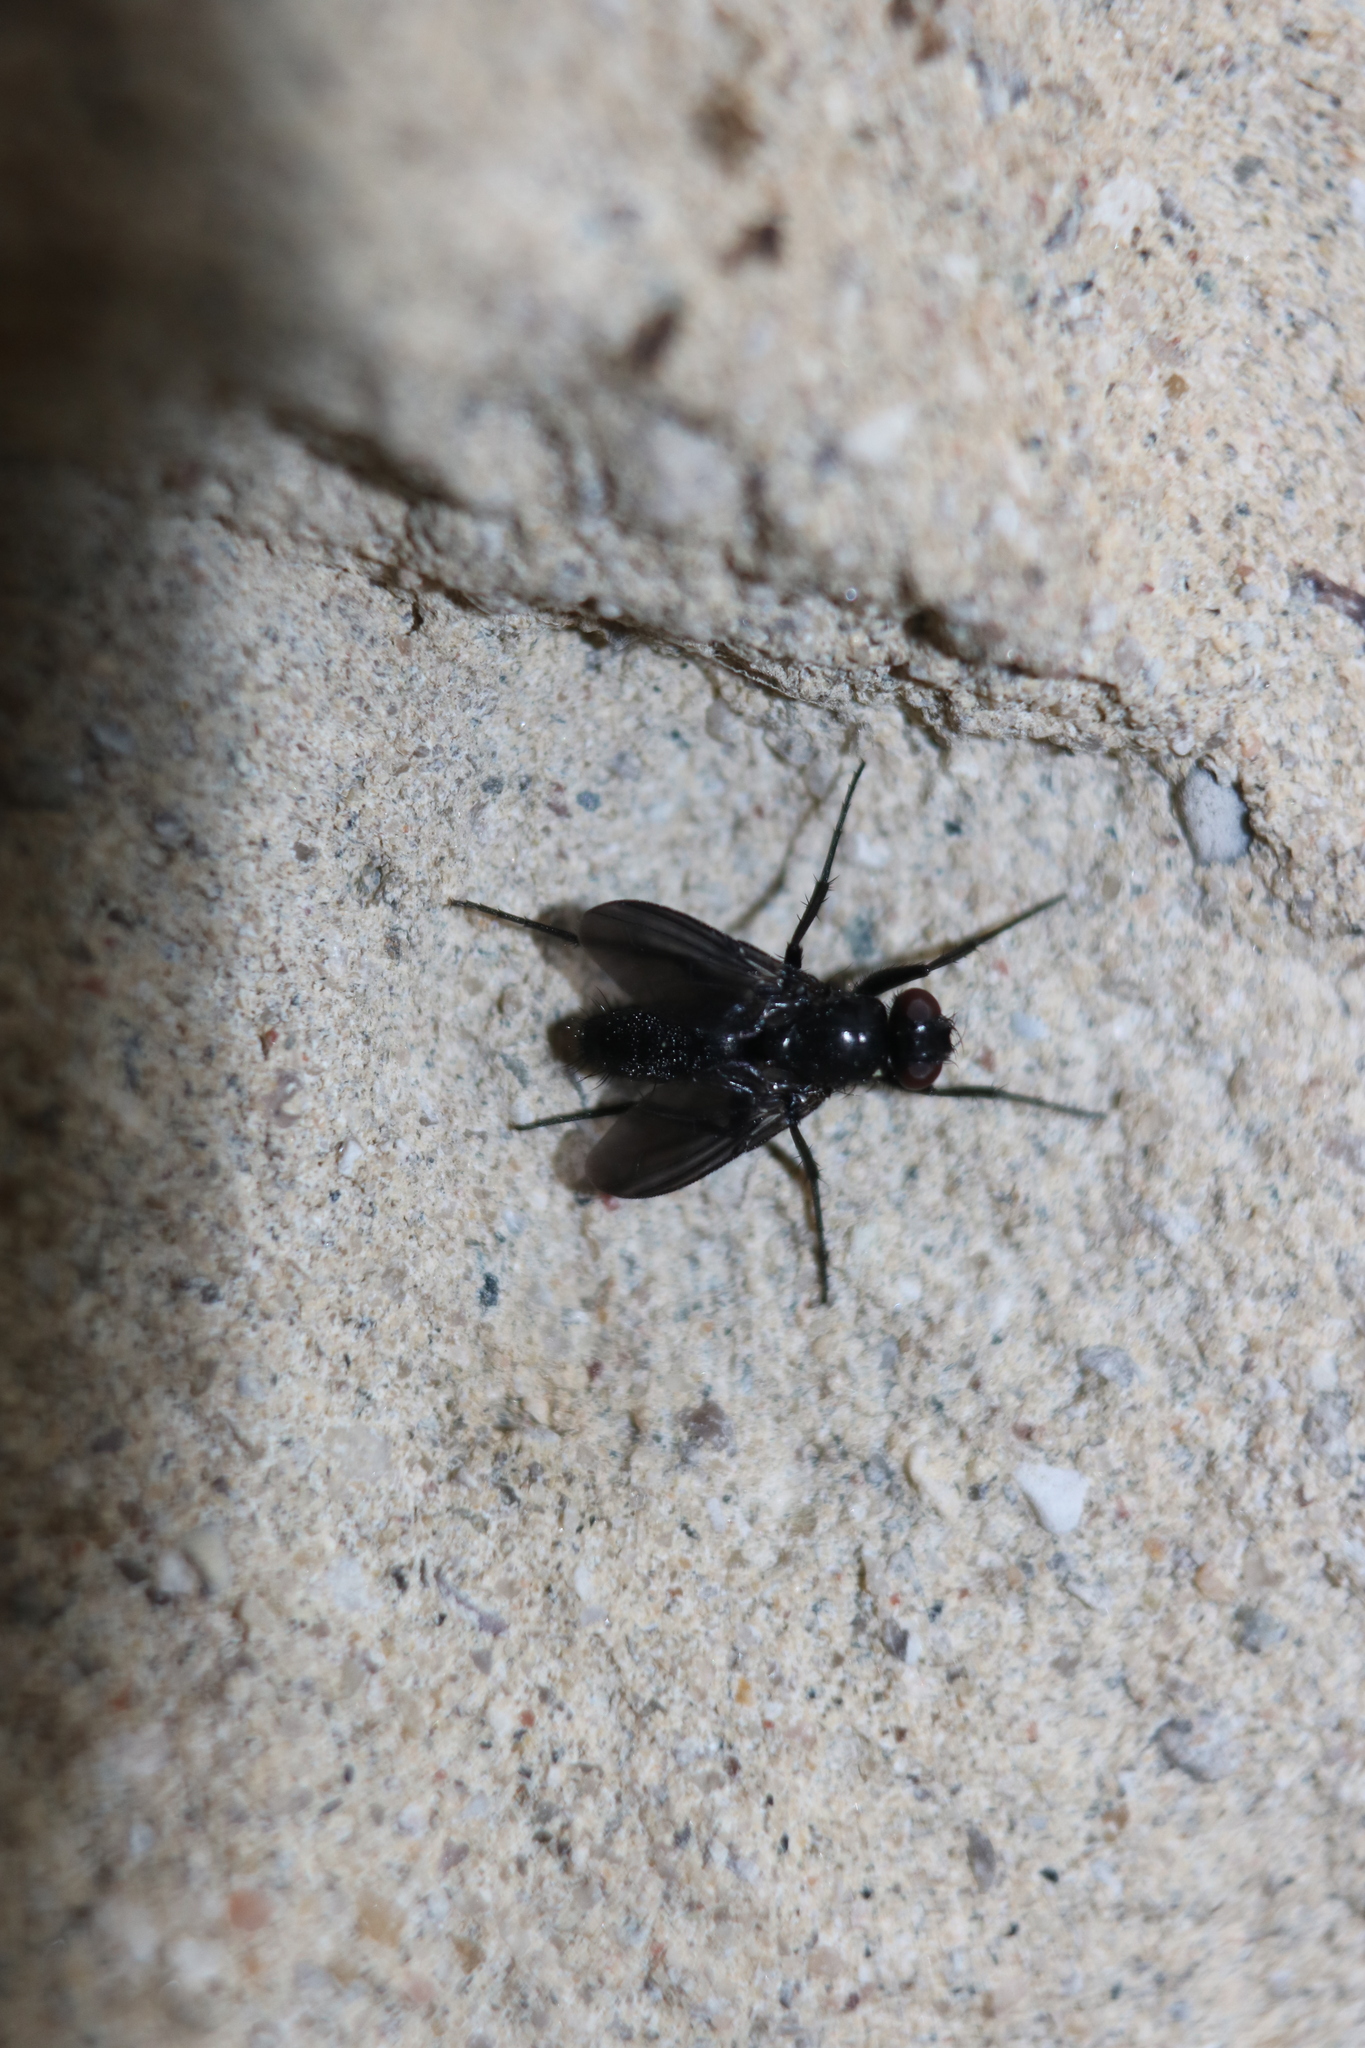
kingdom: Animalia
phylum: Arthropoda
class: Insecta
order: Diptera
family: Calliphoridae
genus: Melanophora
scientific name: Melanophora roralis
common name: Smoky-winged woodlouse-fly
